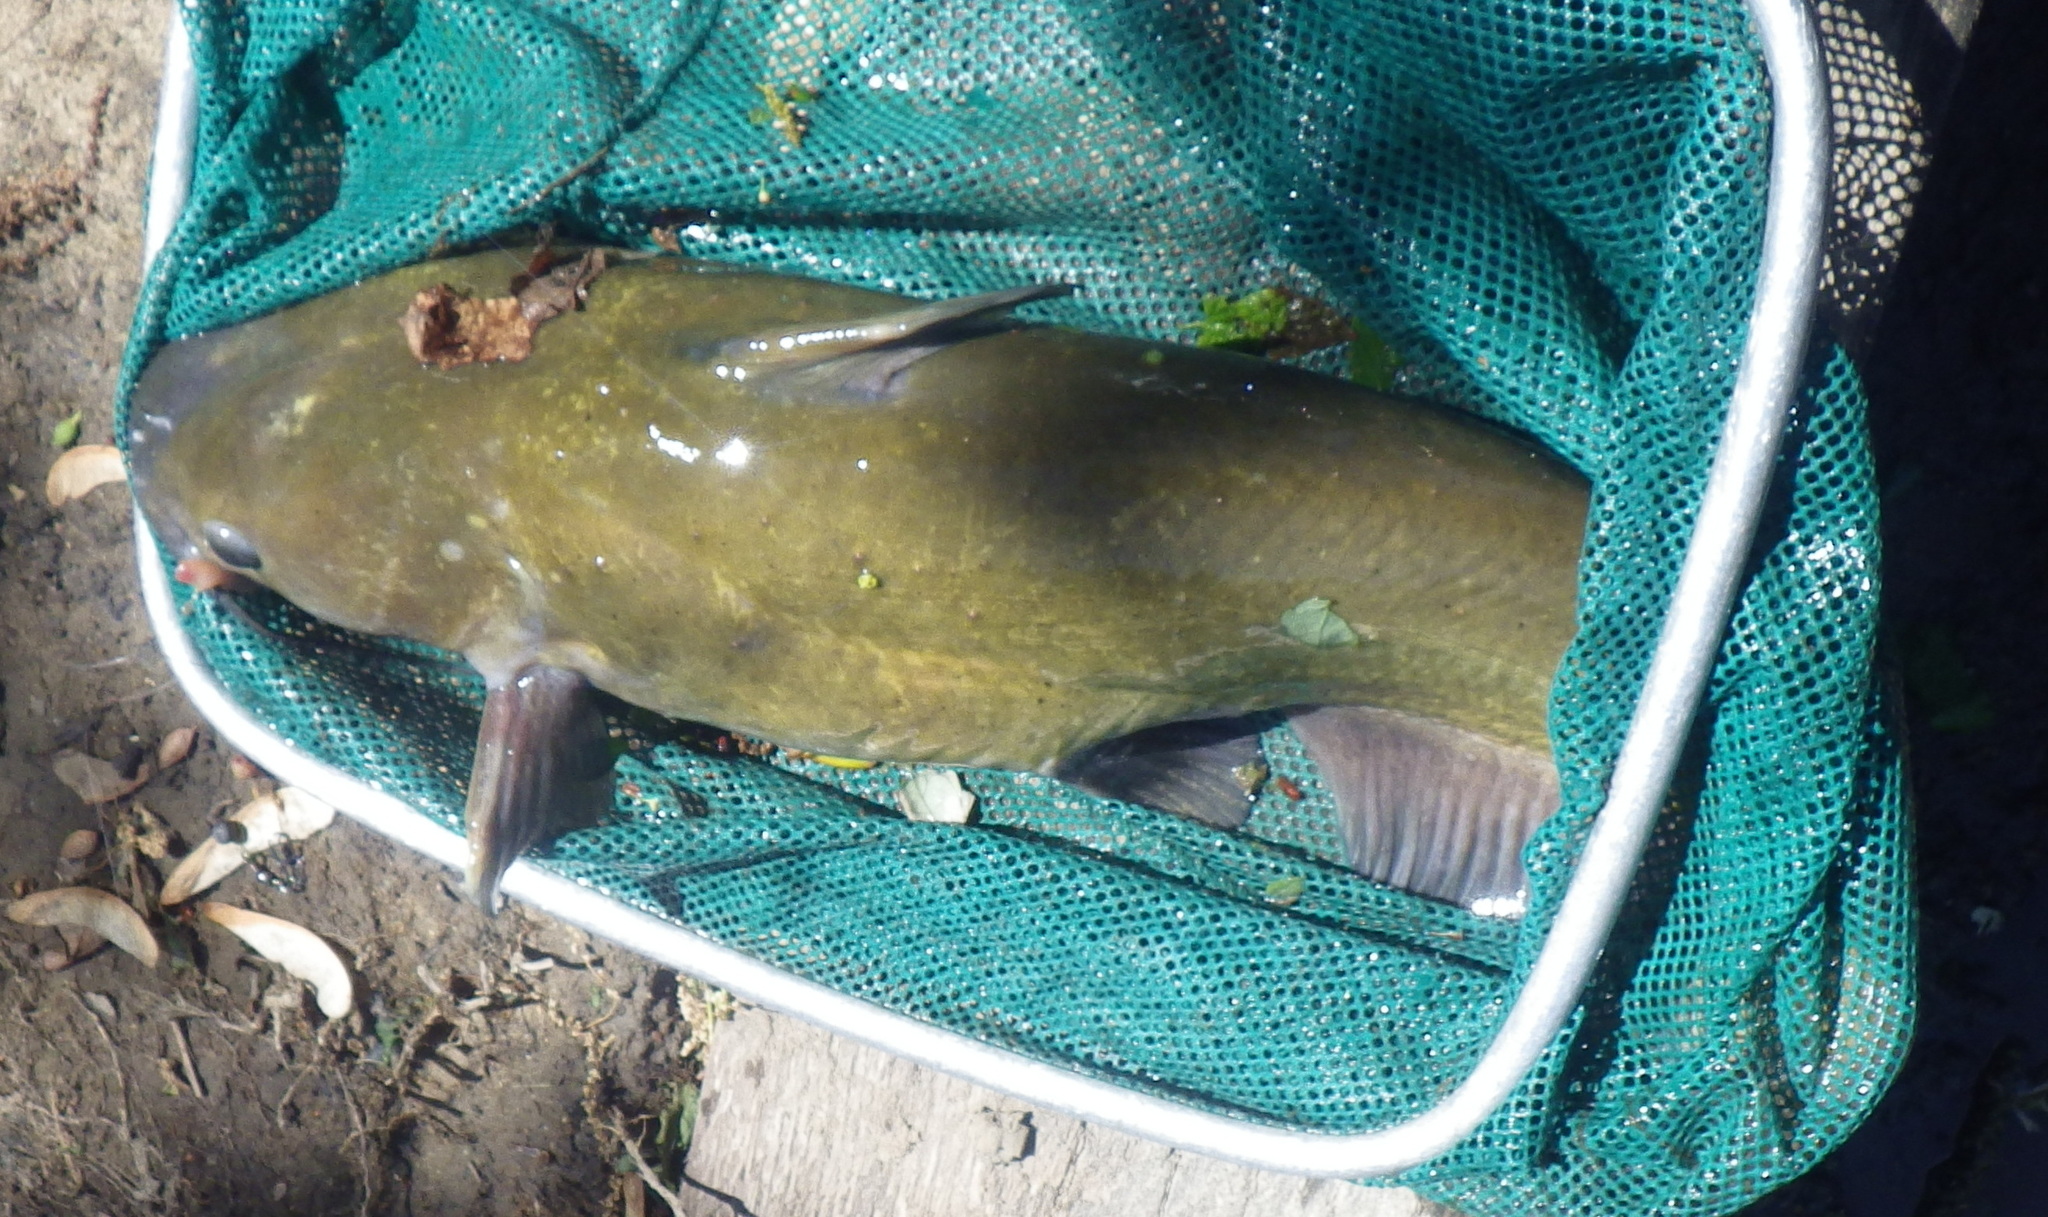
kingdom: Animalia
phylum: Chordata
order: Siluriformes
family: Ictaluridae
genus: Ictalurus
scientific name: Ictalurus punctatus
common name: Channel catfish
